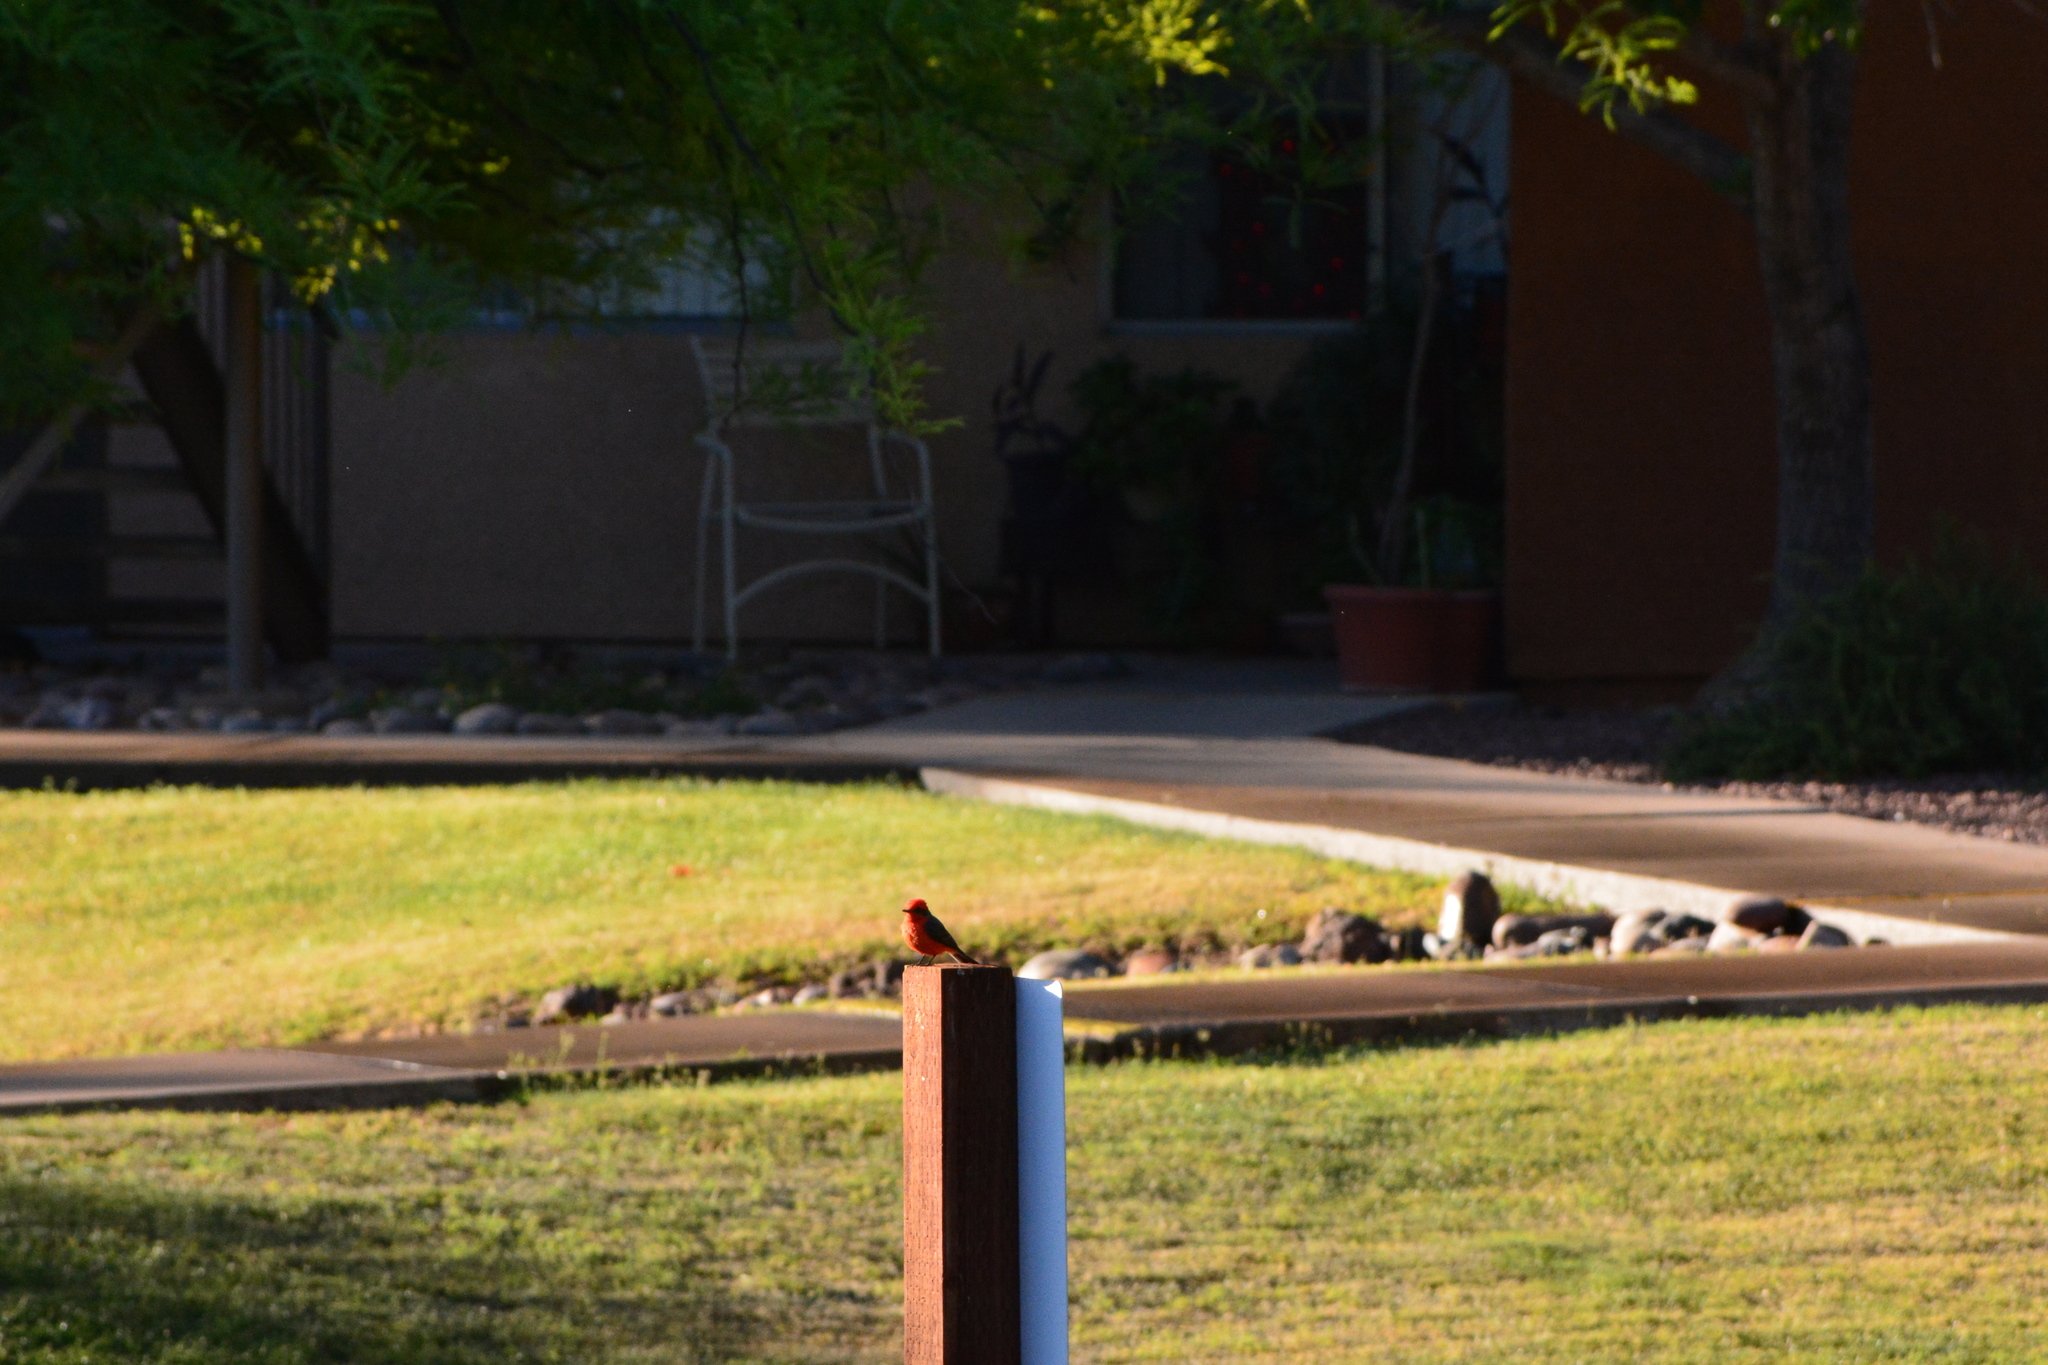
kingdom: Animalia
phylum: Chordata
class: Aves
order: Passeriformes
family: Tyrannidae
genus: Pyrocephalus
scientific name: Pyrocephalus rubinus
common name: Vermilion flycatcher
